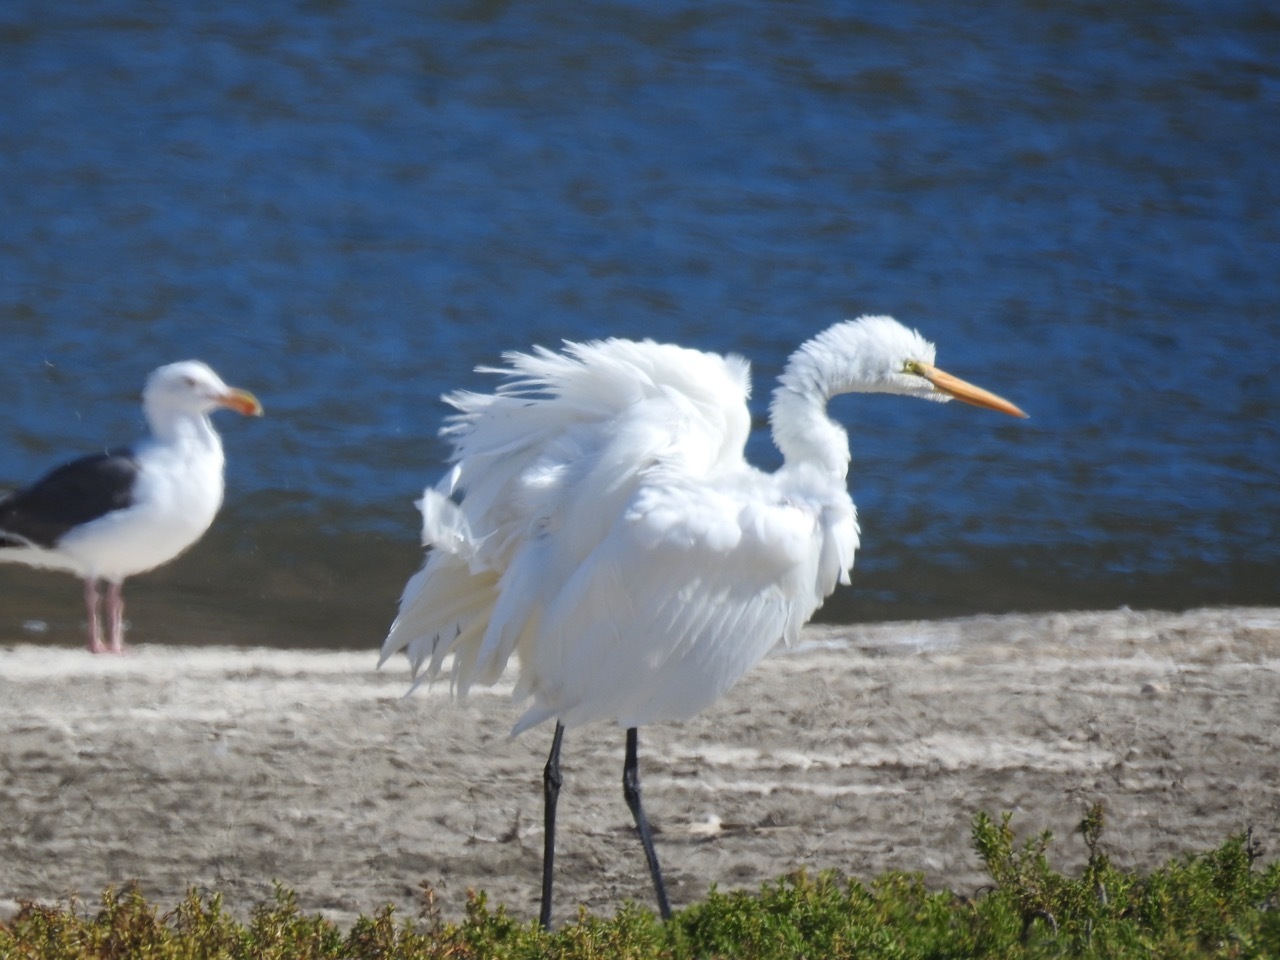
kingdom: Animalia
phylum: Chordata
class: Aves
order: Pelecaniformes
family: Ardeidae
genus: Ardea
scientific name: Ardea alba
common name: Great egret
